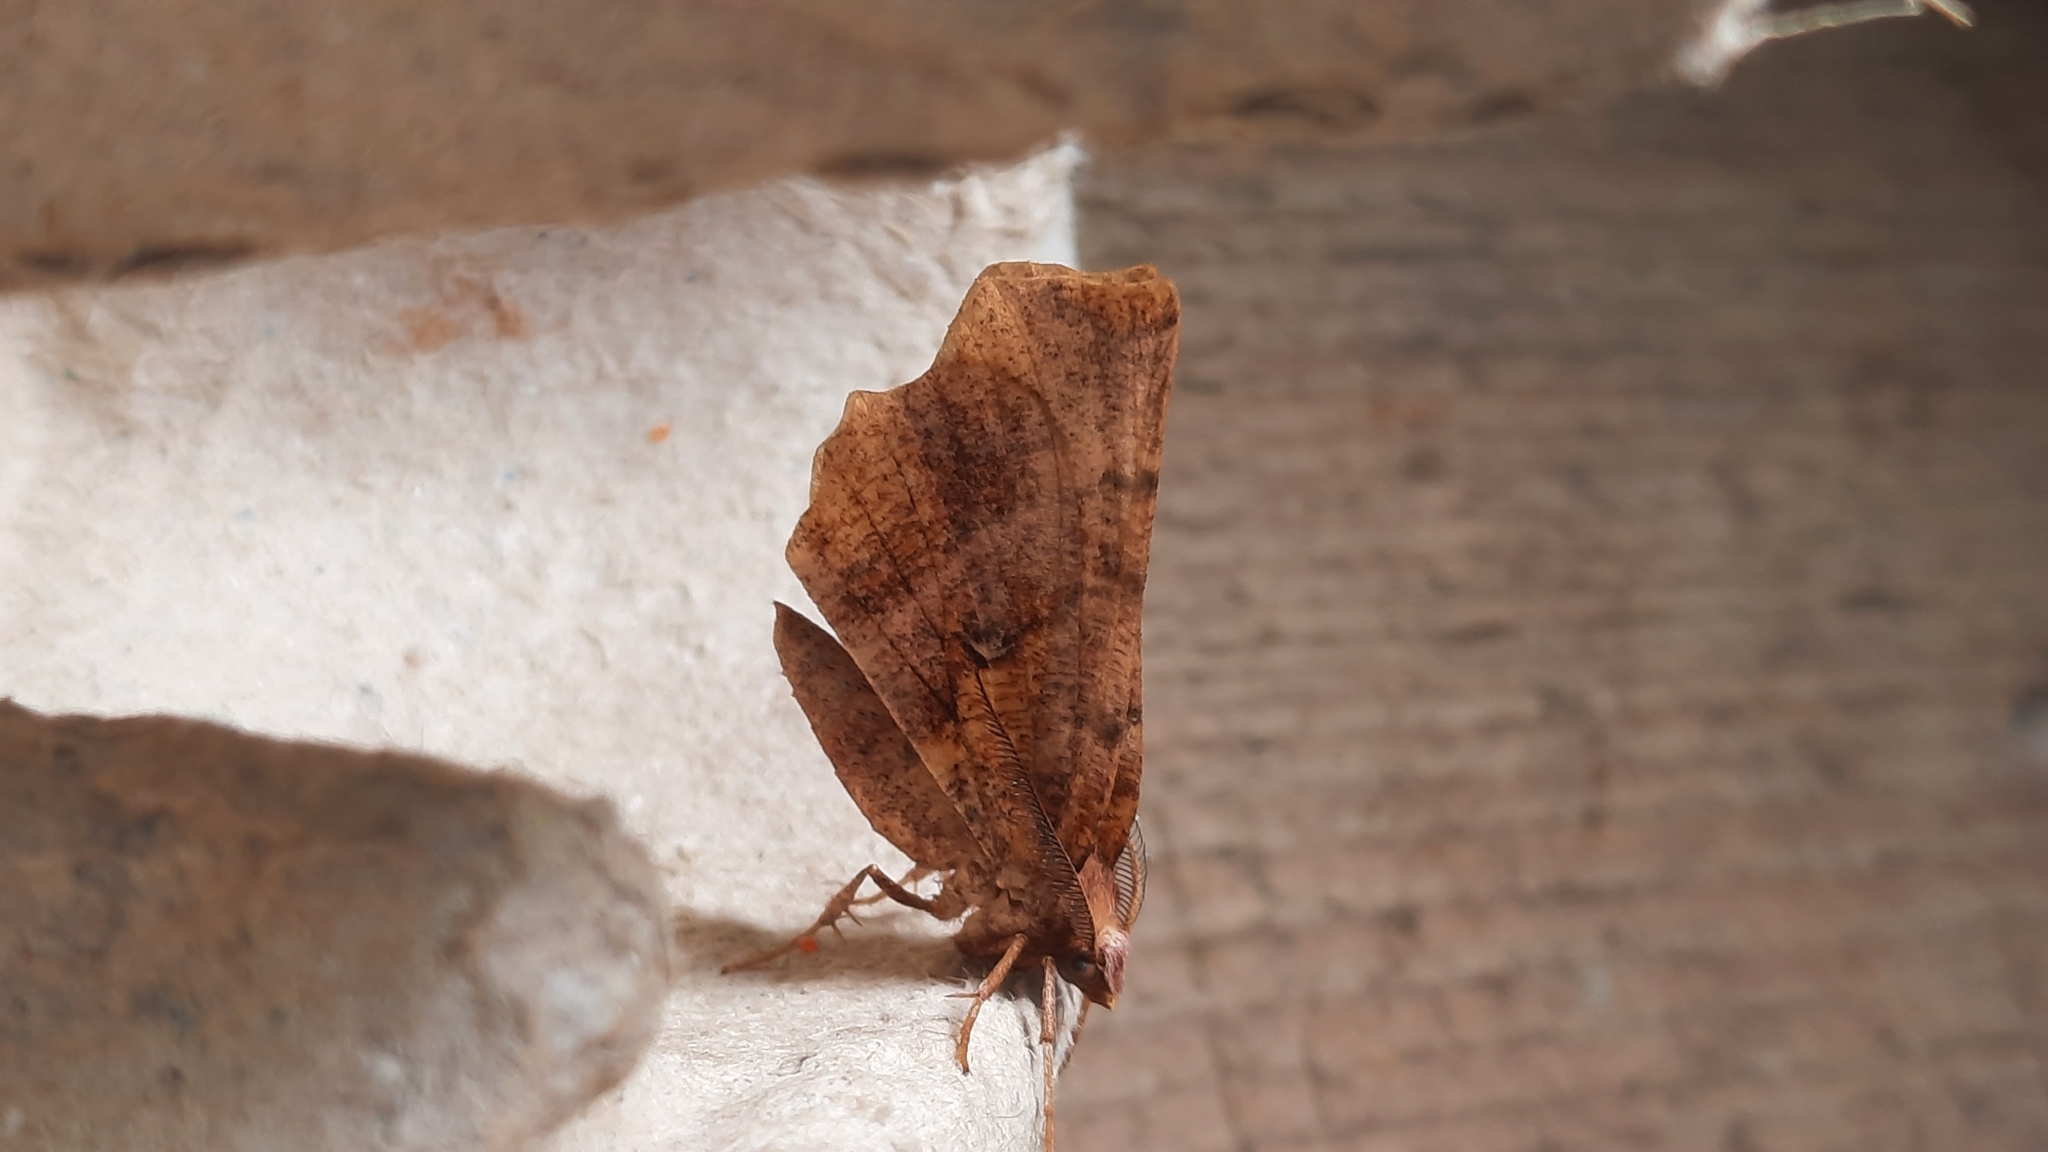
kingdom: Animalia
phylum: Arthropoda
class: Insecta
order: Lepidoptera
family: Geometridae
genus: Selenia
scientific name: Selenia dentaria
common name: Early thorn
